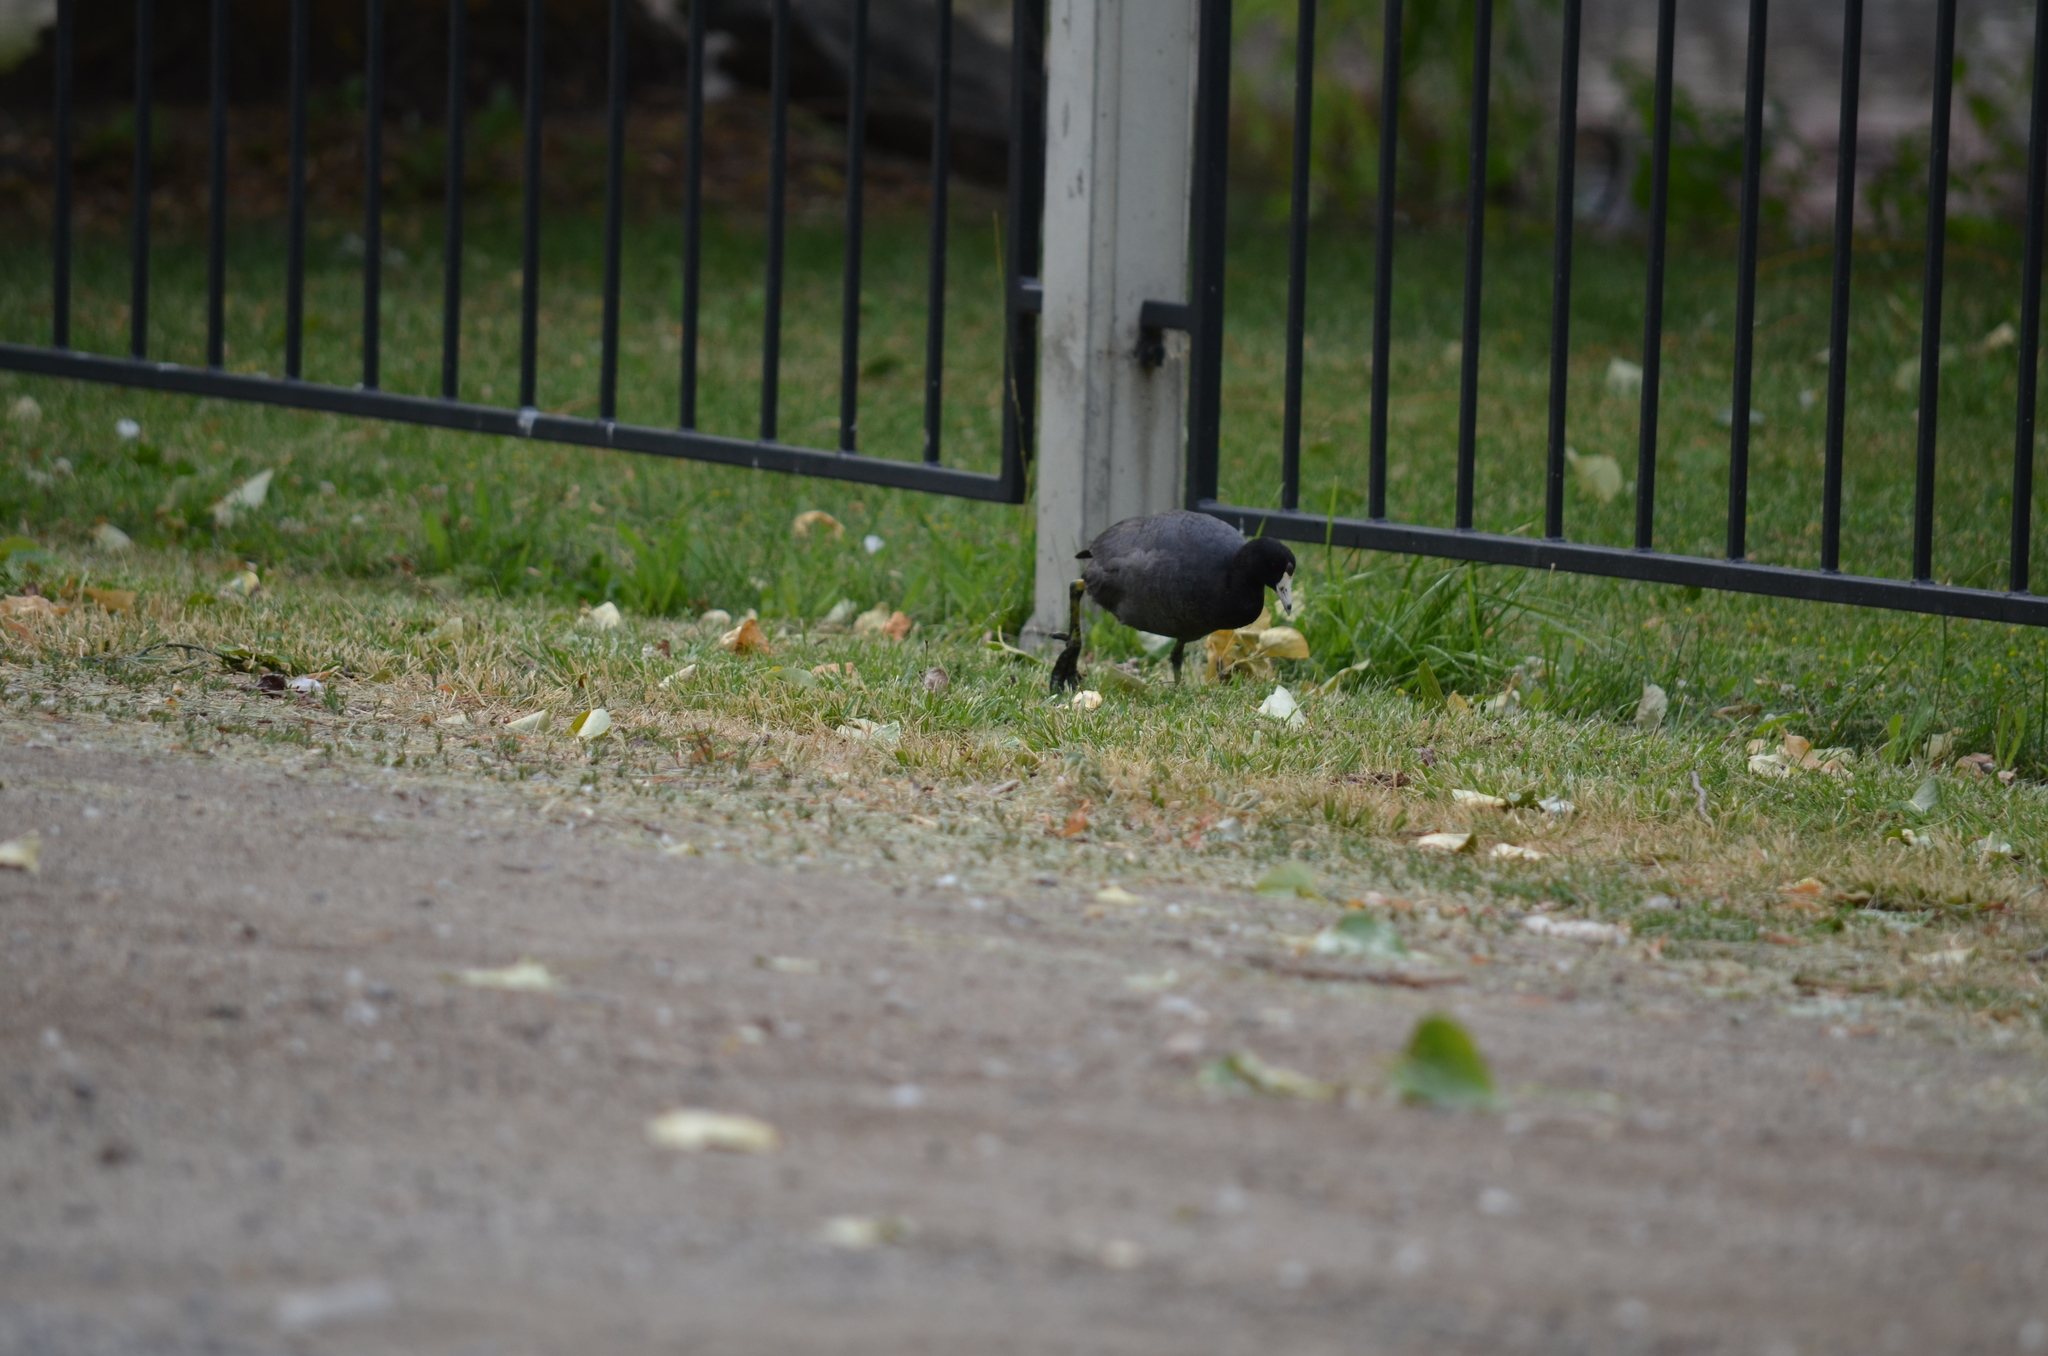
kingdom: Animalia
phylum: Chordata
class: Aves
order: Gruiformes
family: Rallidae
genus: Fulica
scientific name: Fulica americana
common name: American coot
